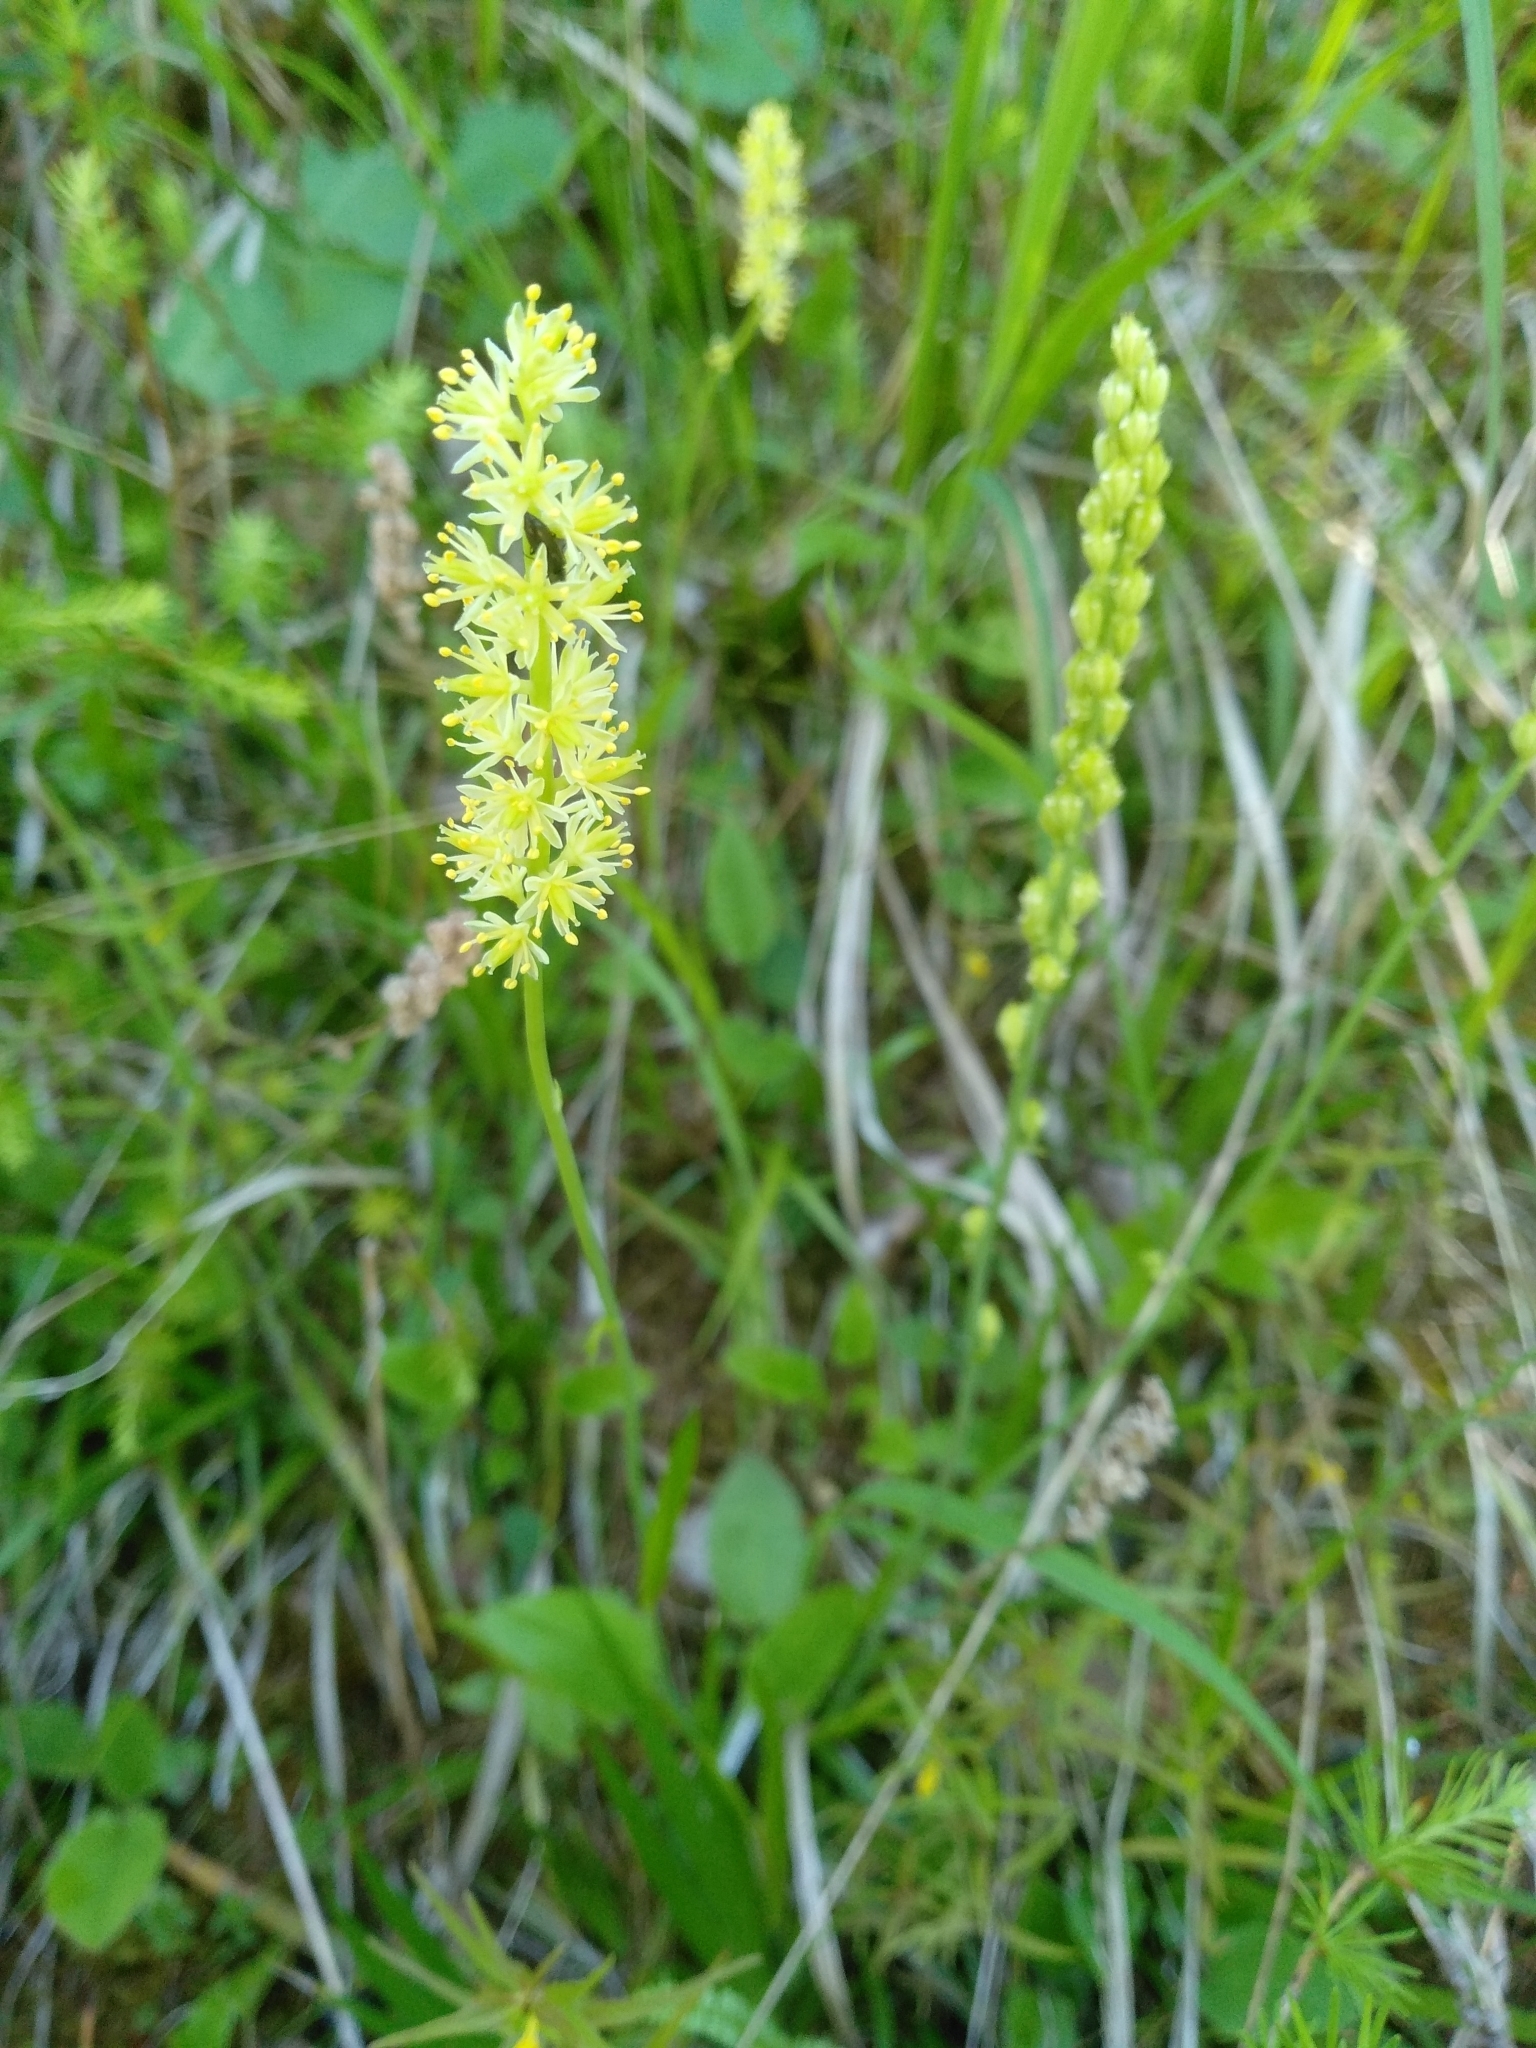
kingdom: Plantae
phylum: Tracheophyta
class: Liliopsida
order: Alismatales
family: Tofieldiaceae
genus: Tofieldia
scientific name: Tofieldia calyculata
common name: German-asphodel
